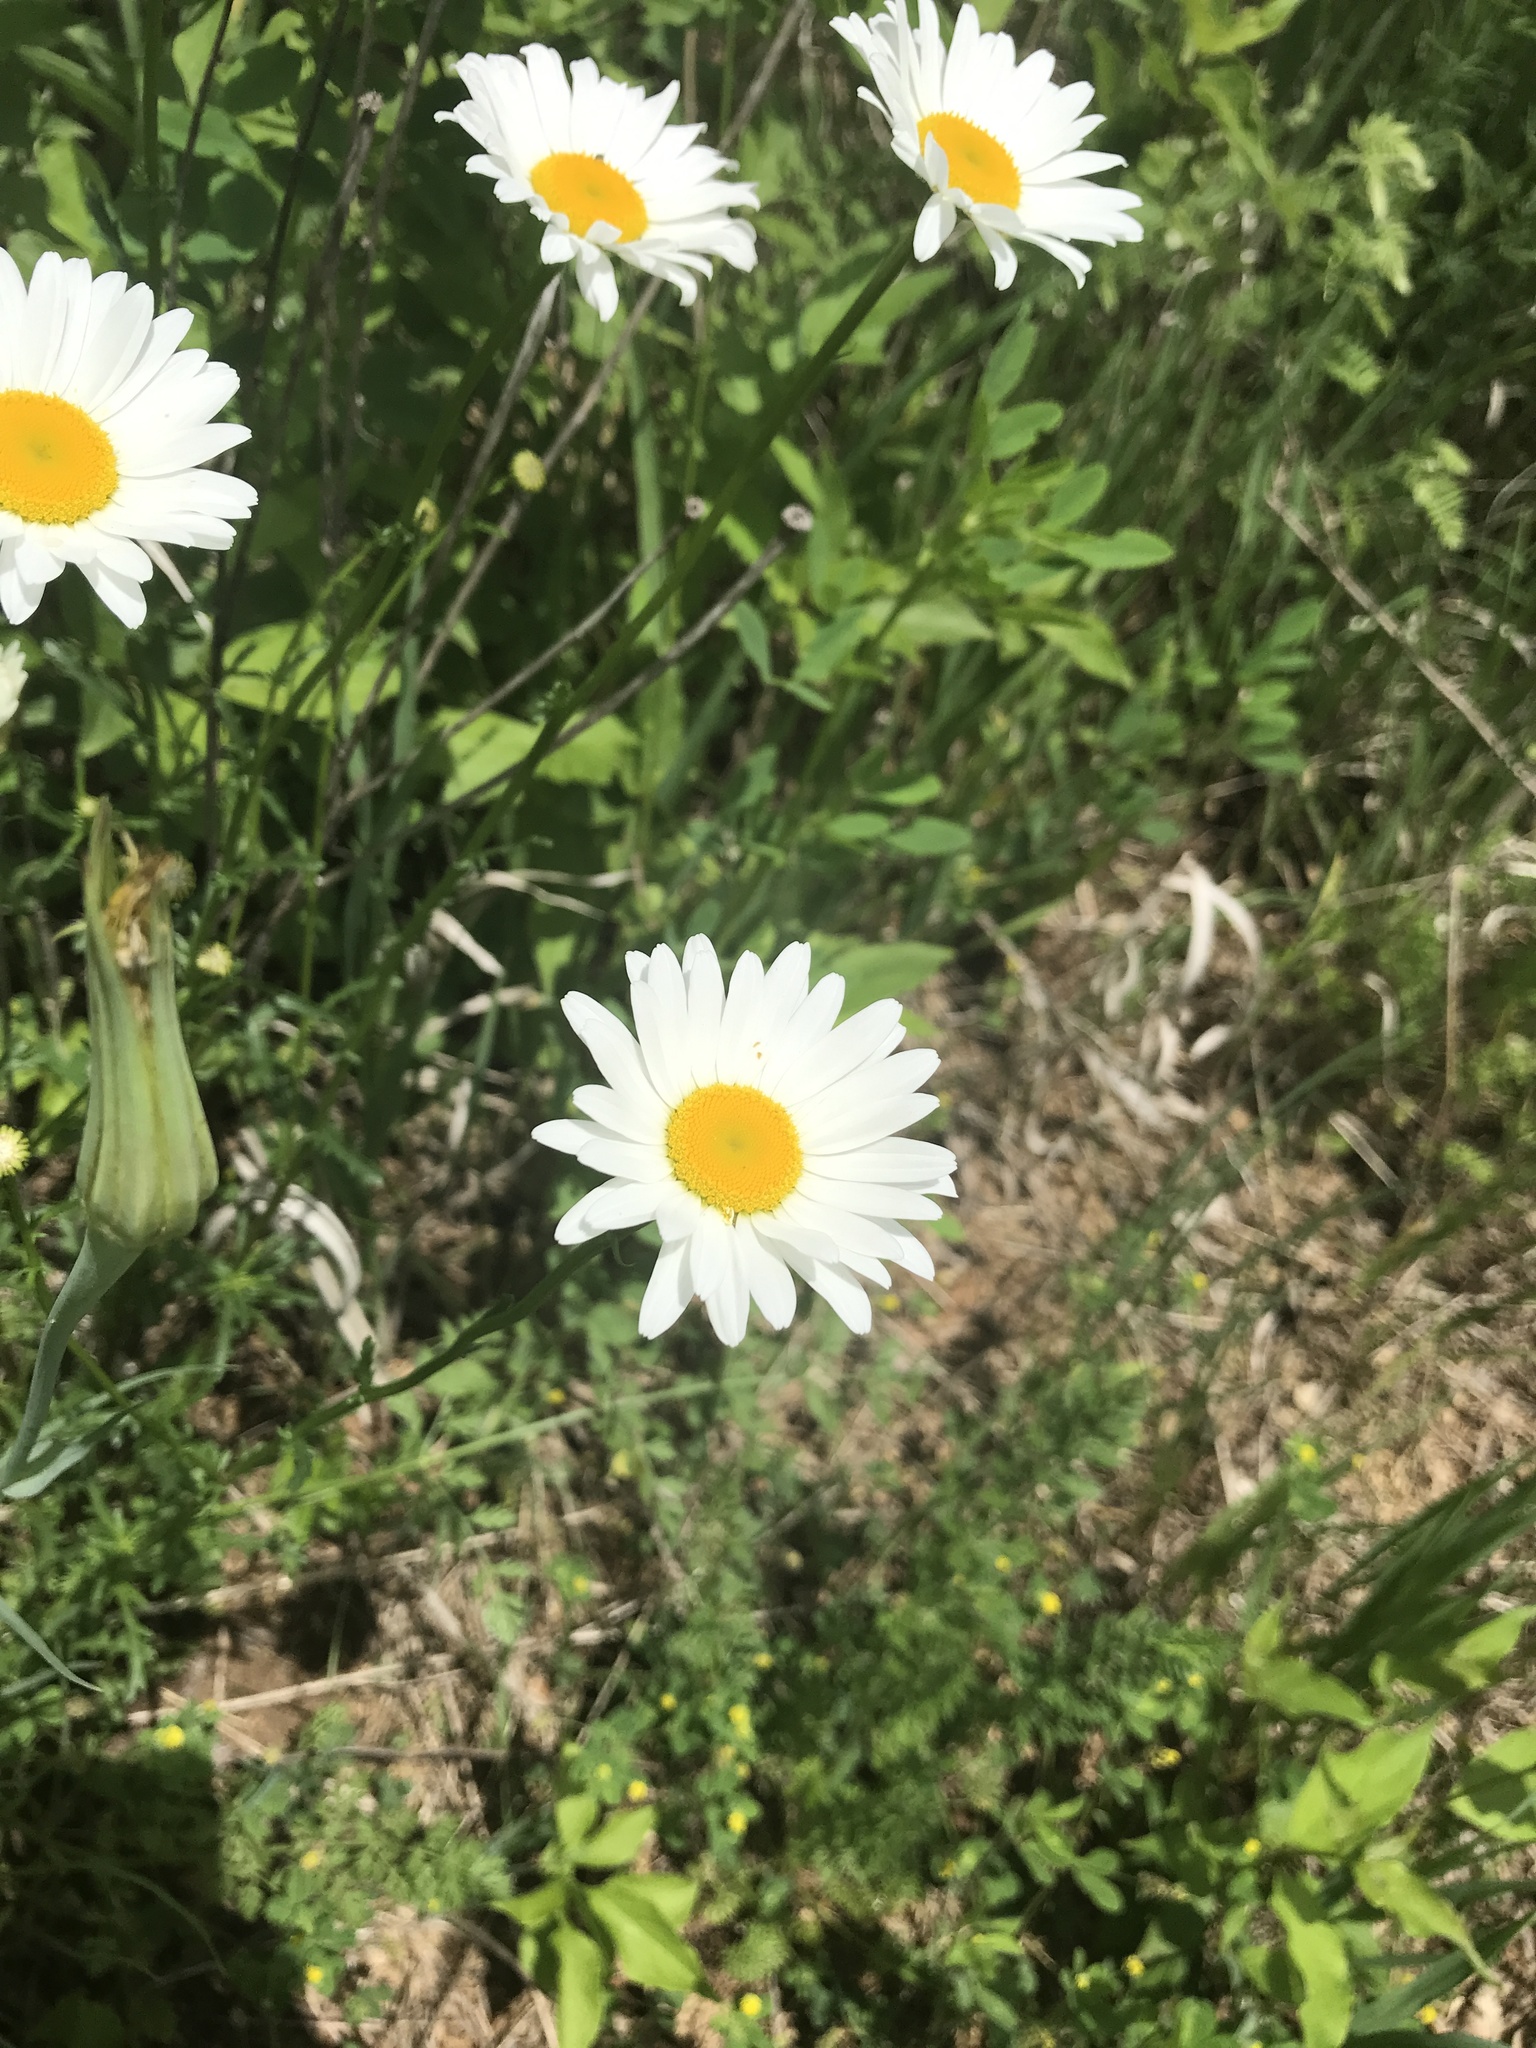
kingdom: Plantae
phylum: Tracheophyta
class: Magnoliopsida
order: Asterales
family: Asteraceae
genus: Leucanthemum
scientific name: Leucanthemum vulgare
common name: Oxeye daisy
